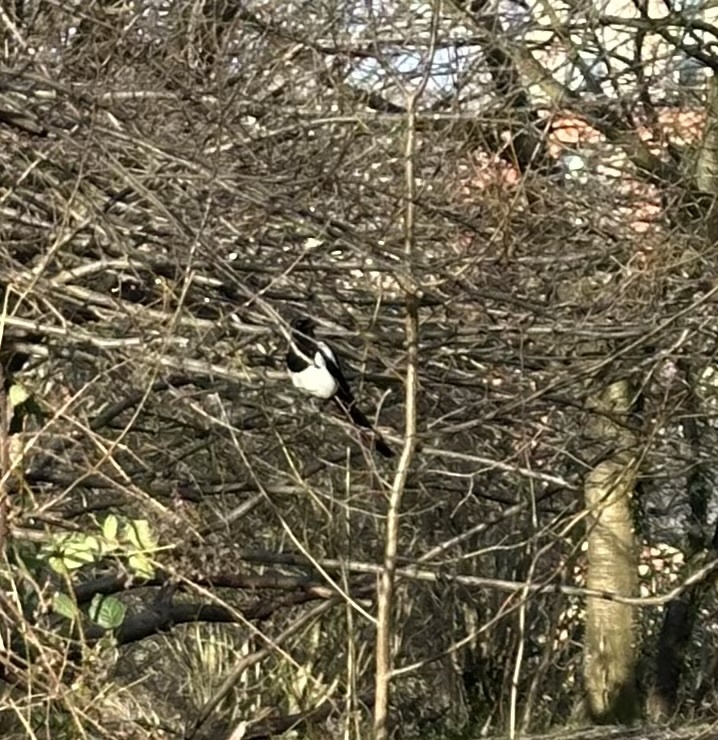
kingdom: Animalia
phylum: Chordata
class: Aves
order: Passeriformes
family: Corvidae
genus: Pica
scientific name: Pica pica
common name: Eurasian magpie
